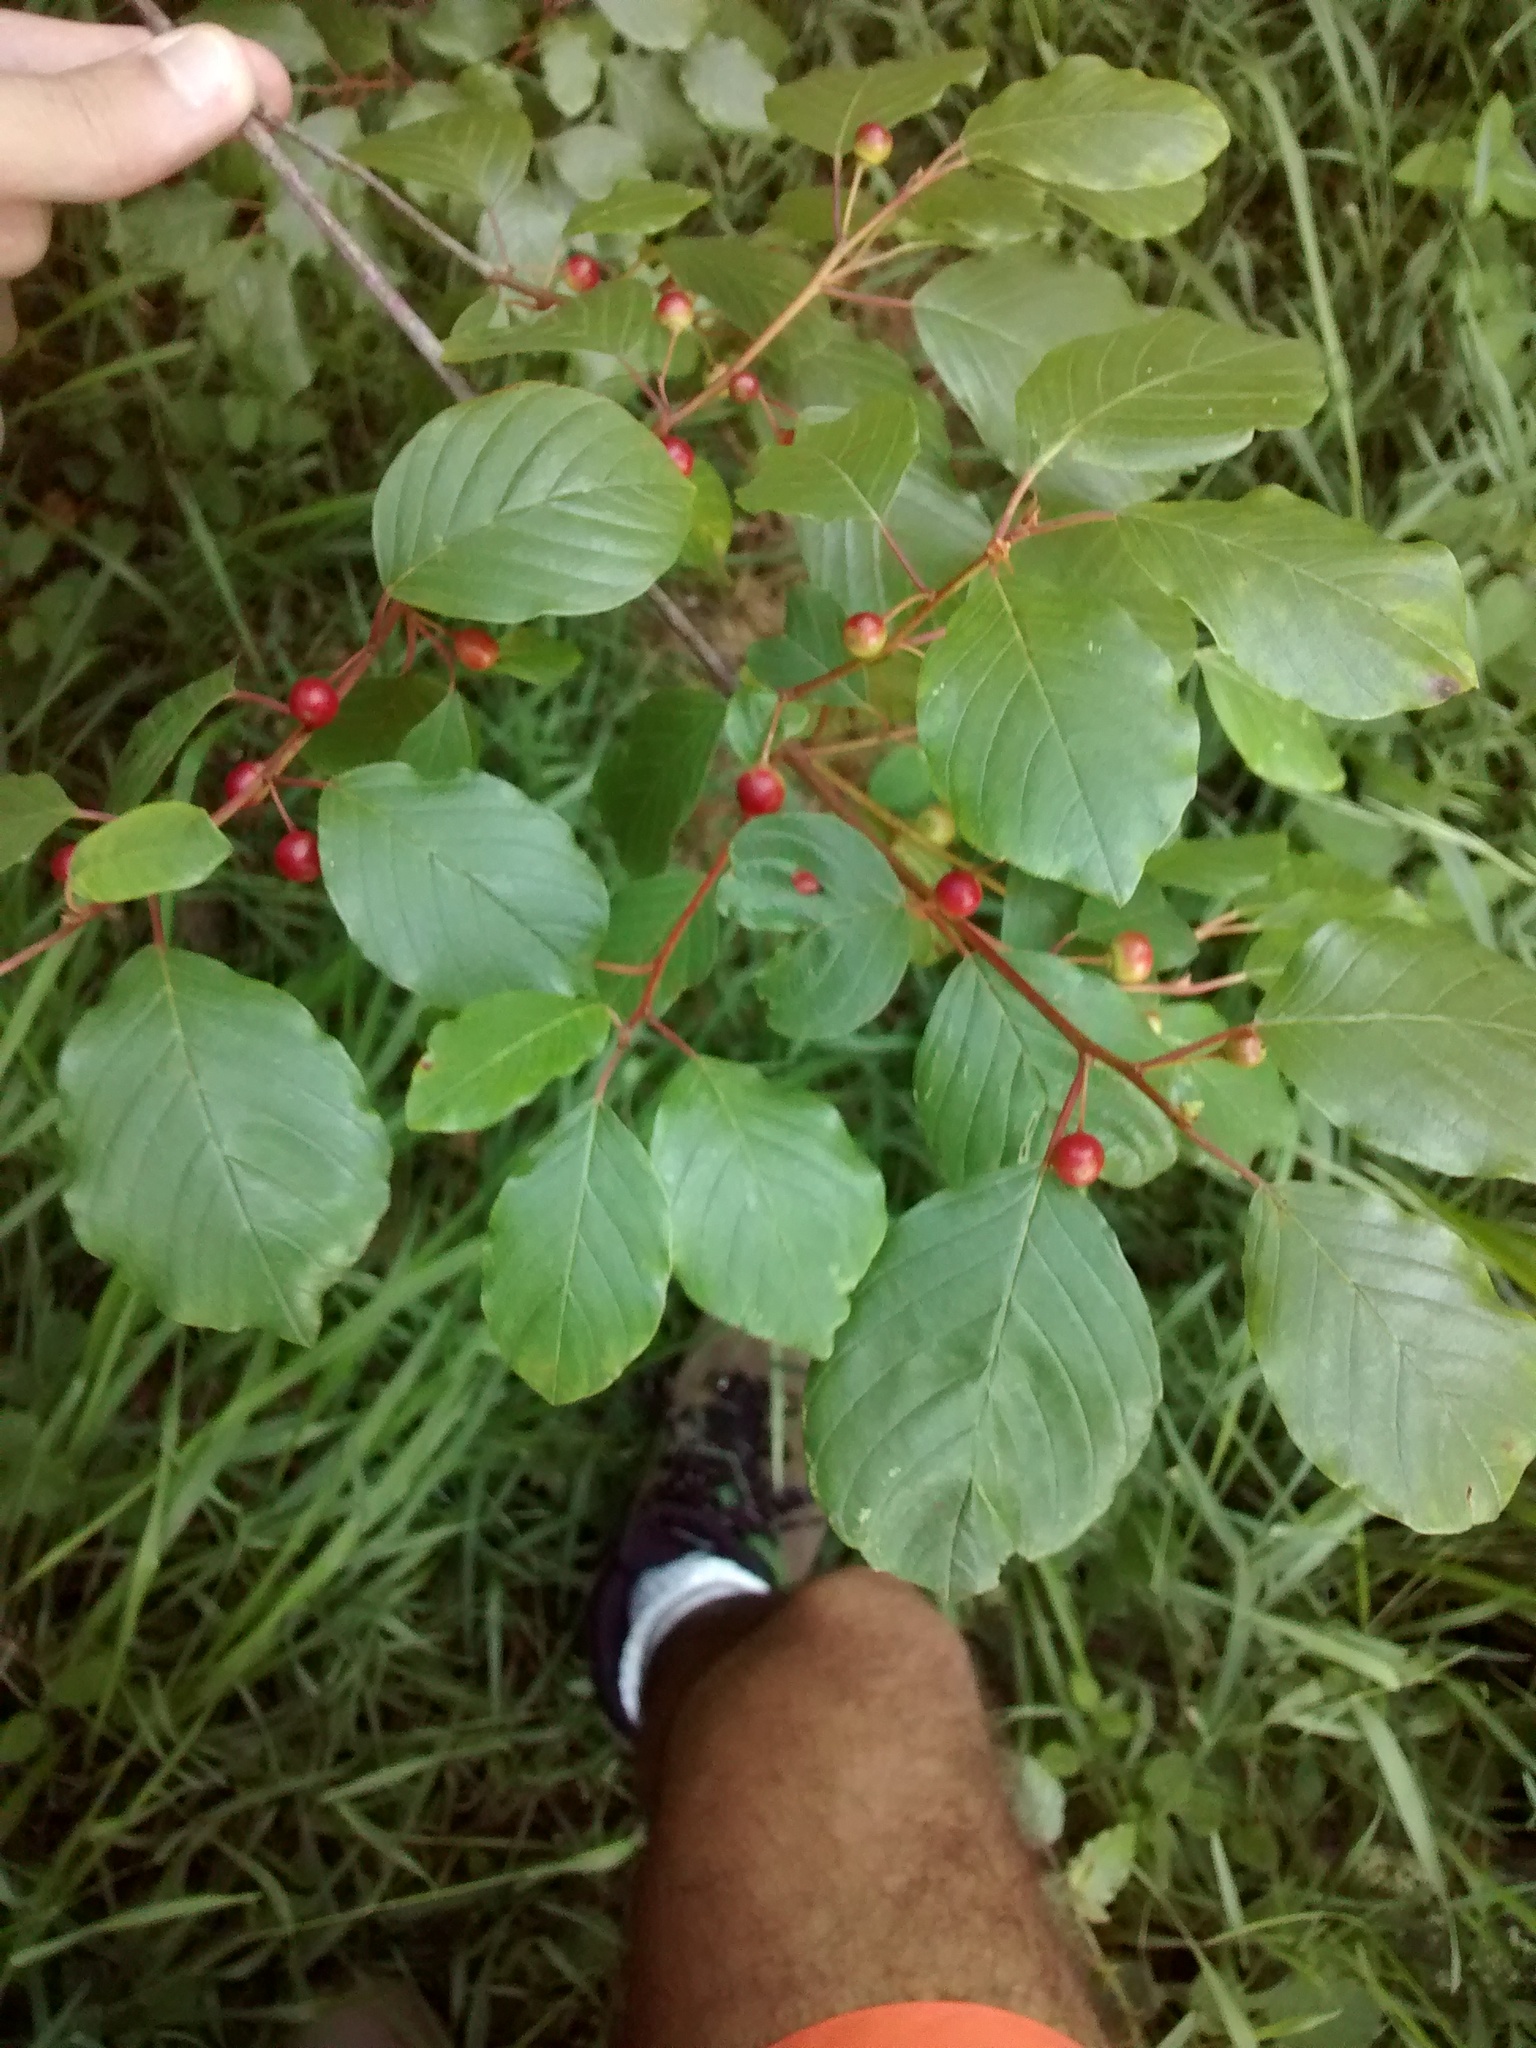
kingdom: Plantae
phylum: Tracheophyta
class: Magnoliopsida
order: Rosales
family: Rhamnaceae
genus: Frangula
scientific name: Frangula alnus
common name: Alder buckthorn
